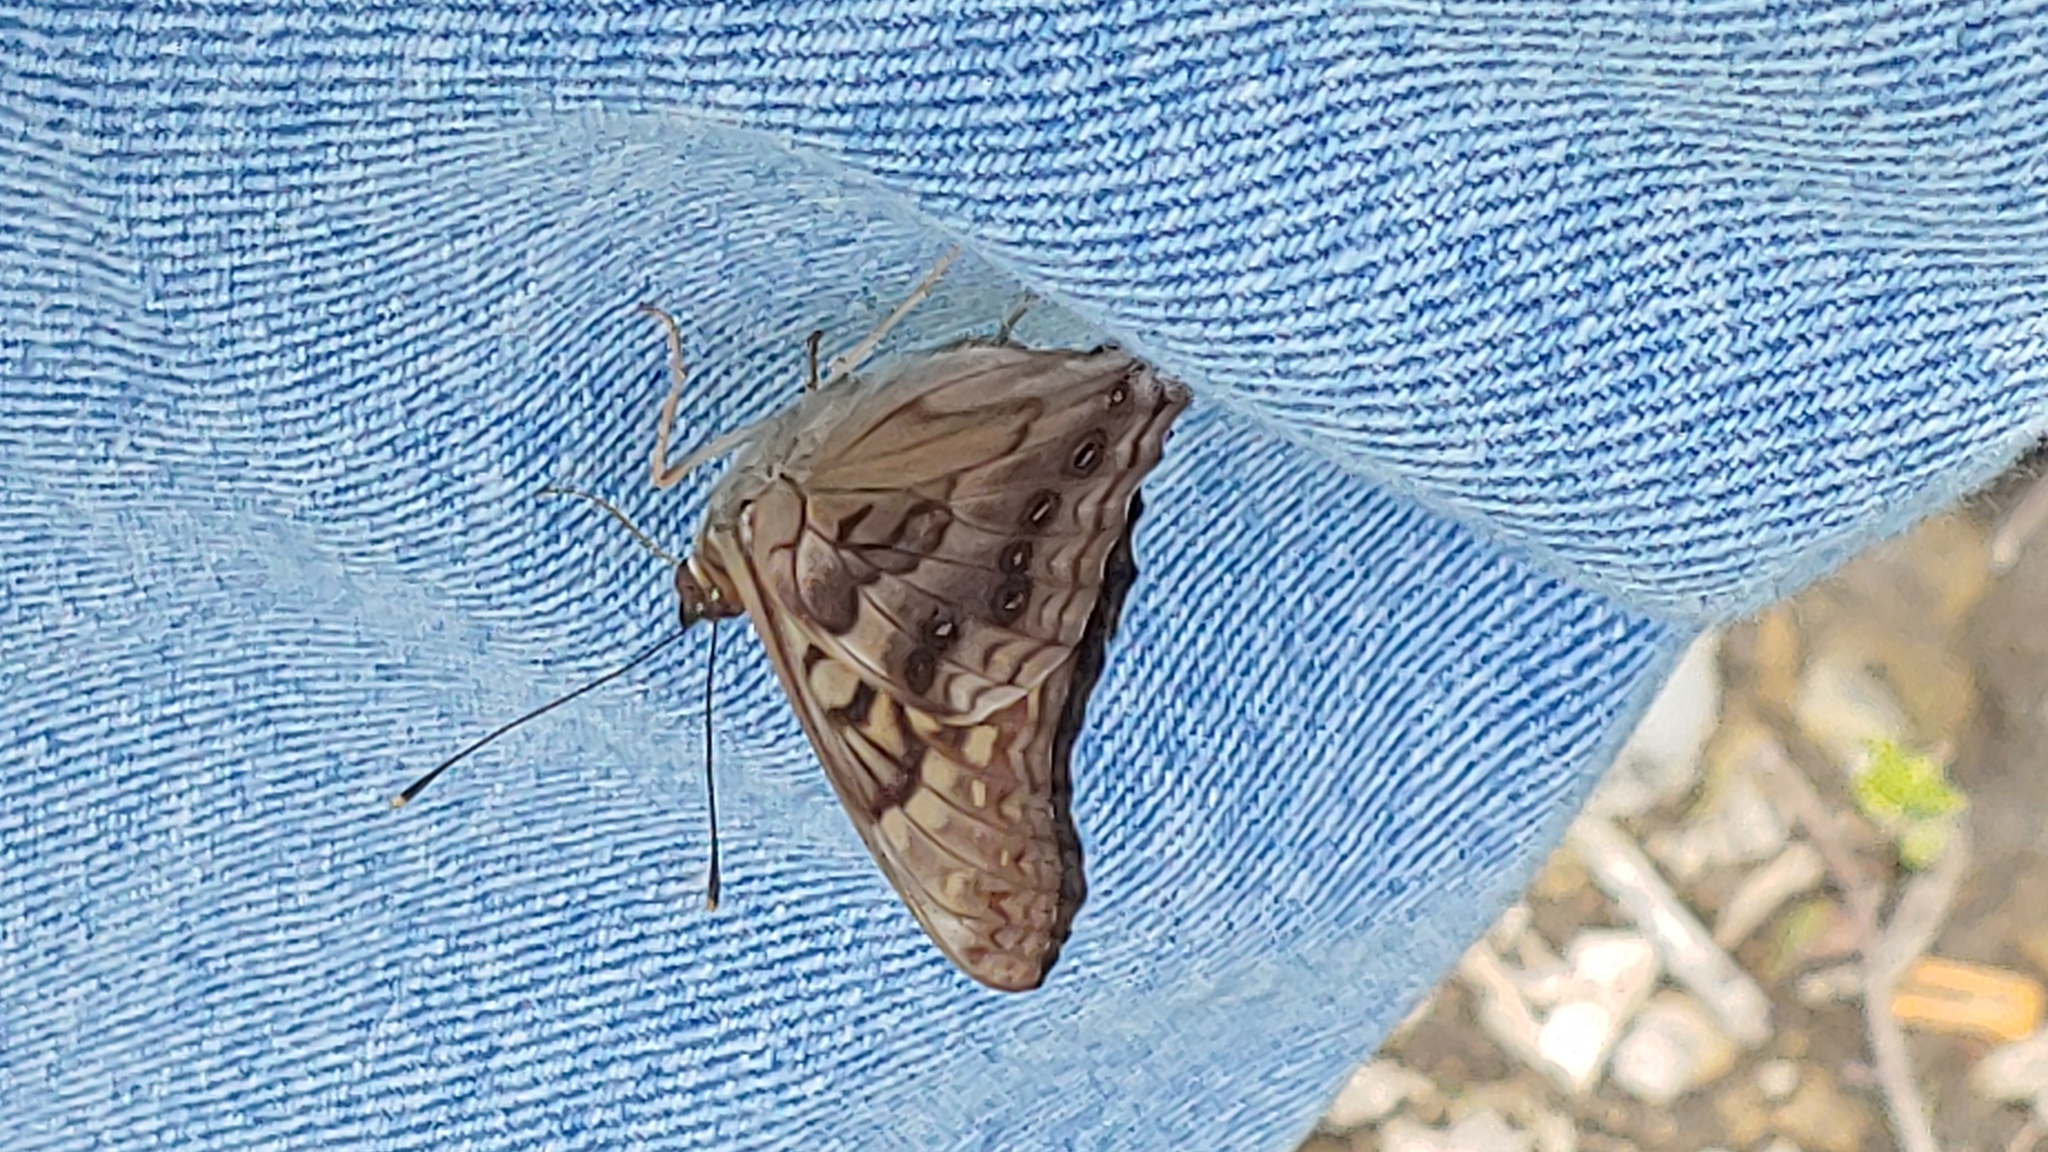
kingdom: Animalia
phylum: Arthropoda
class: Insecta
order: Lepidoptera
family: Nymphalidae
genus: Asterocampa
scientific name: Asterocampa clyton
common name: Tawny emperor
